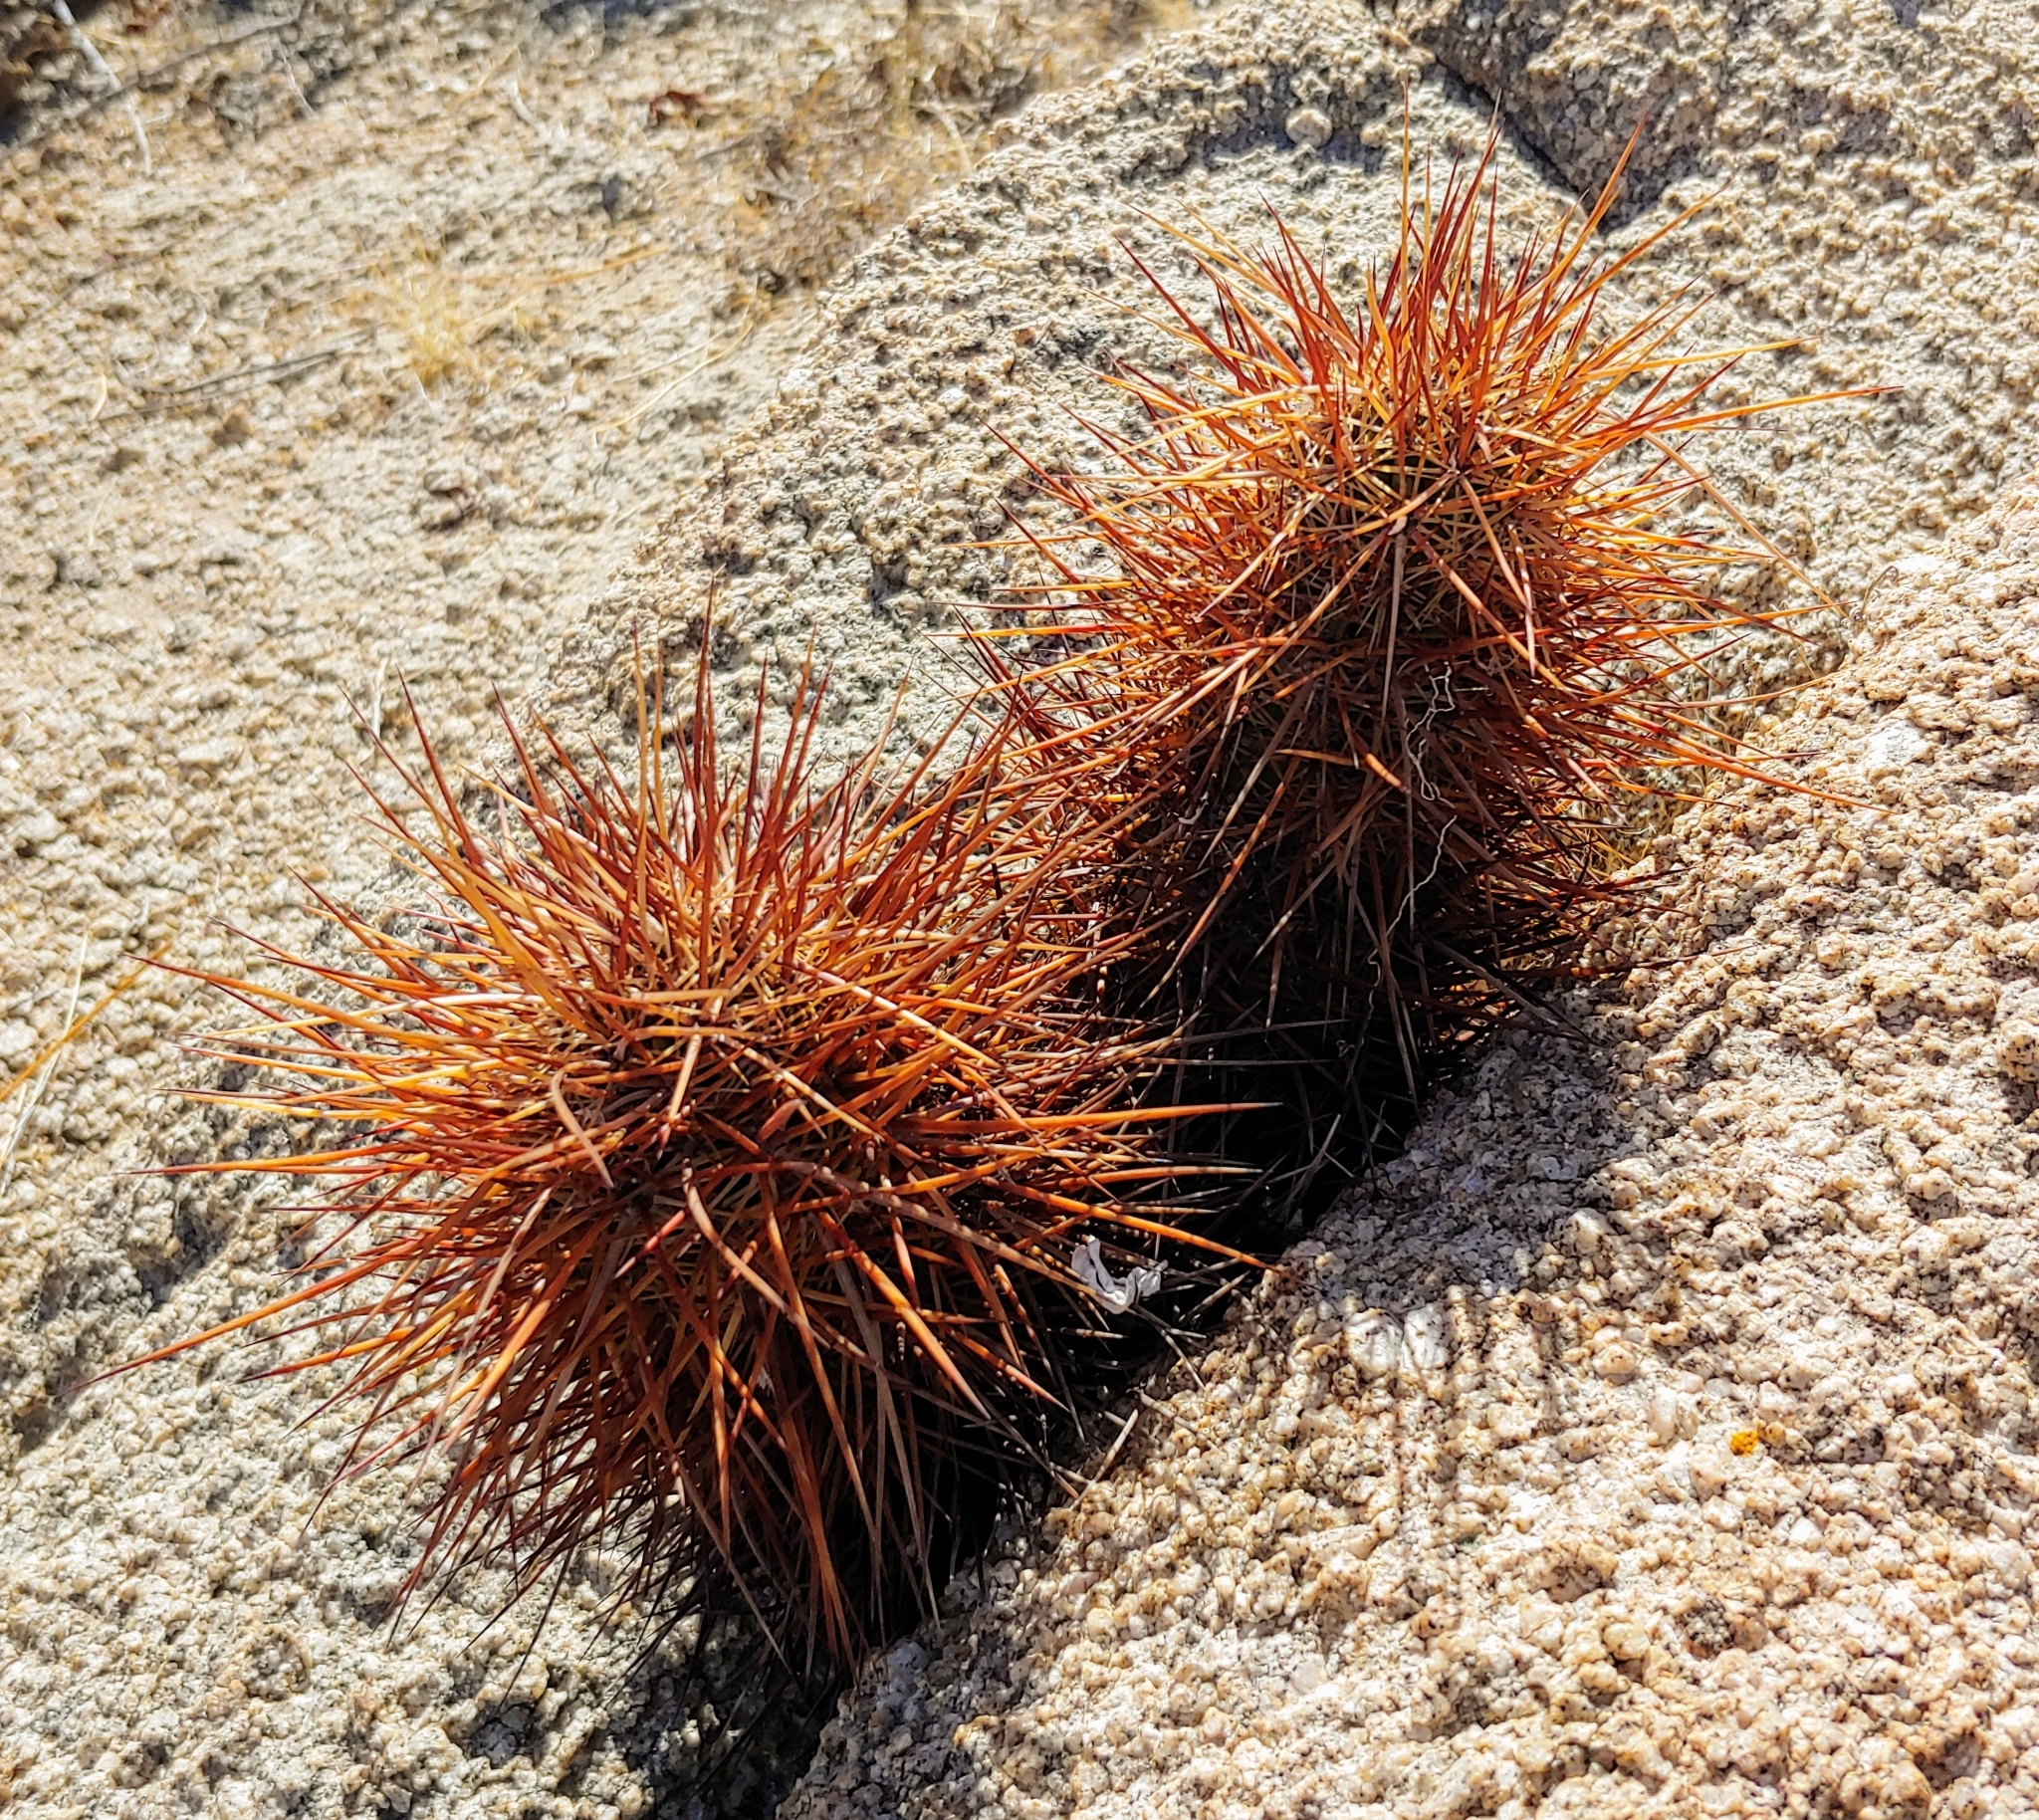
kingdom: Plantae
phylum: Tracheophyta
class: Magnoliopsida
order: Caryophyllales
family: Cactaceae
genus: Echinocereus
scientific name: Echinocereus engelmannii
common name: Engelmann's hedgehog cactus
